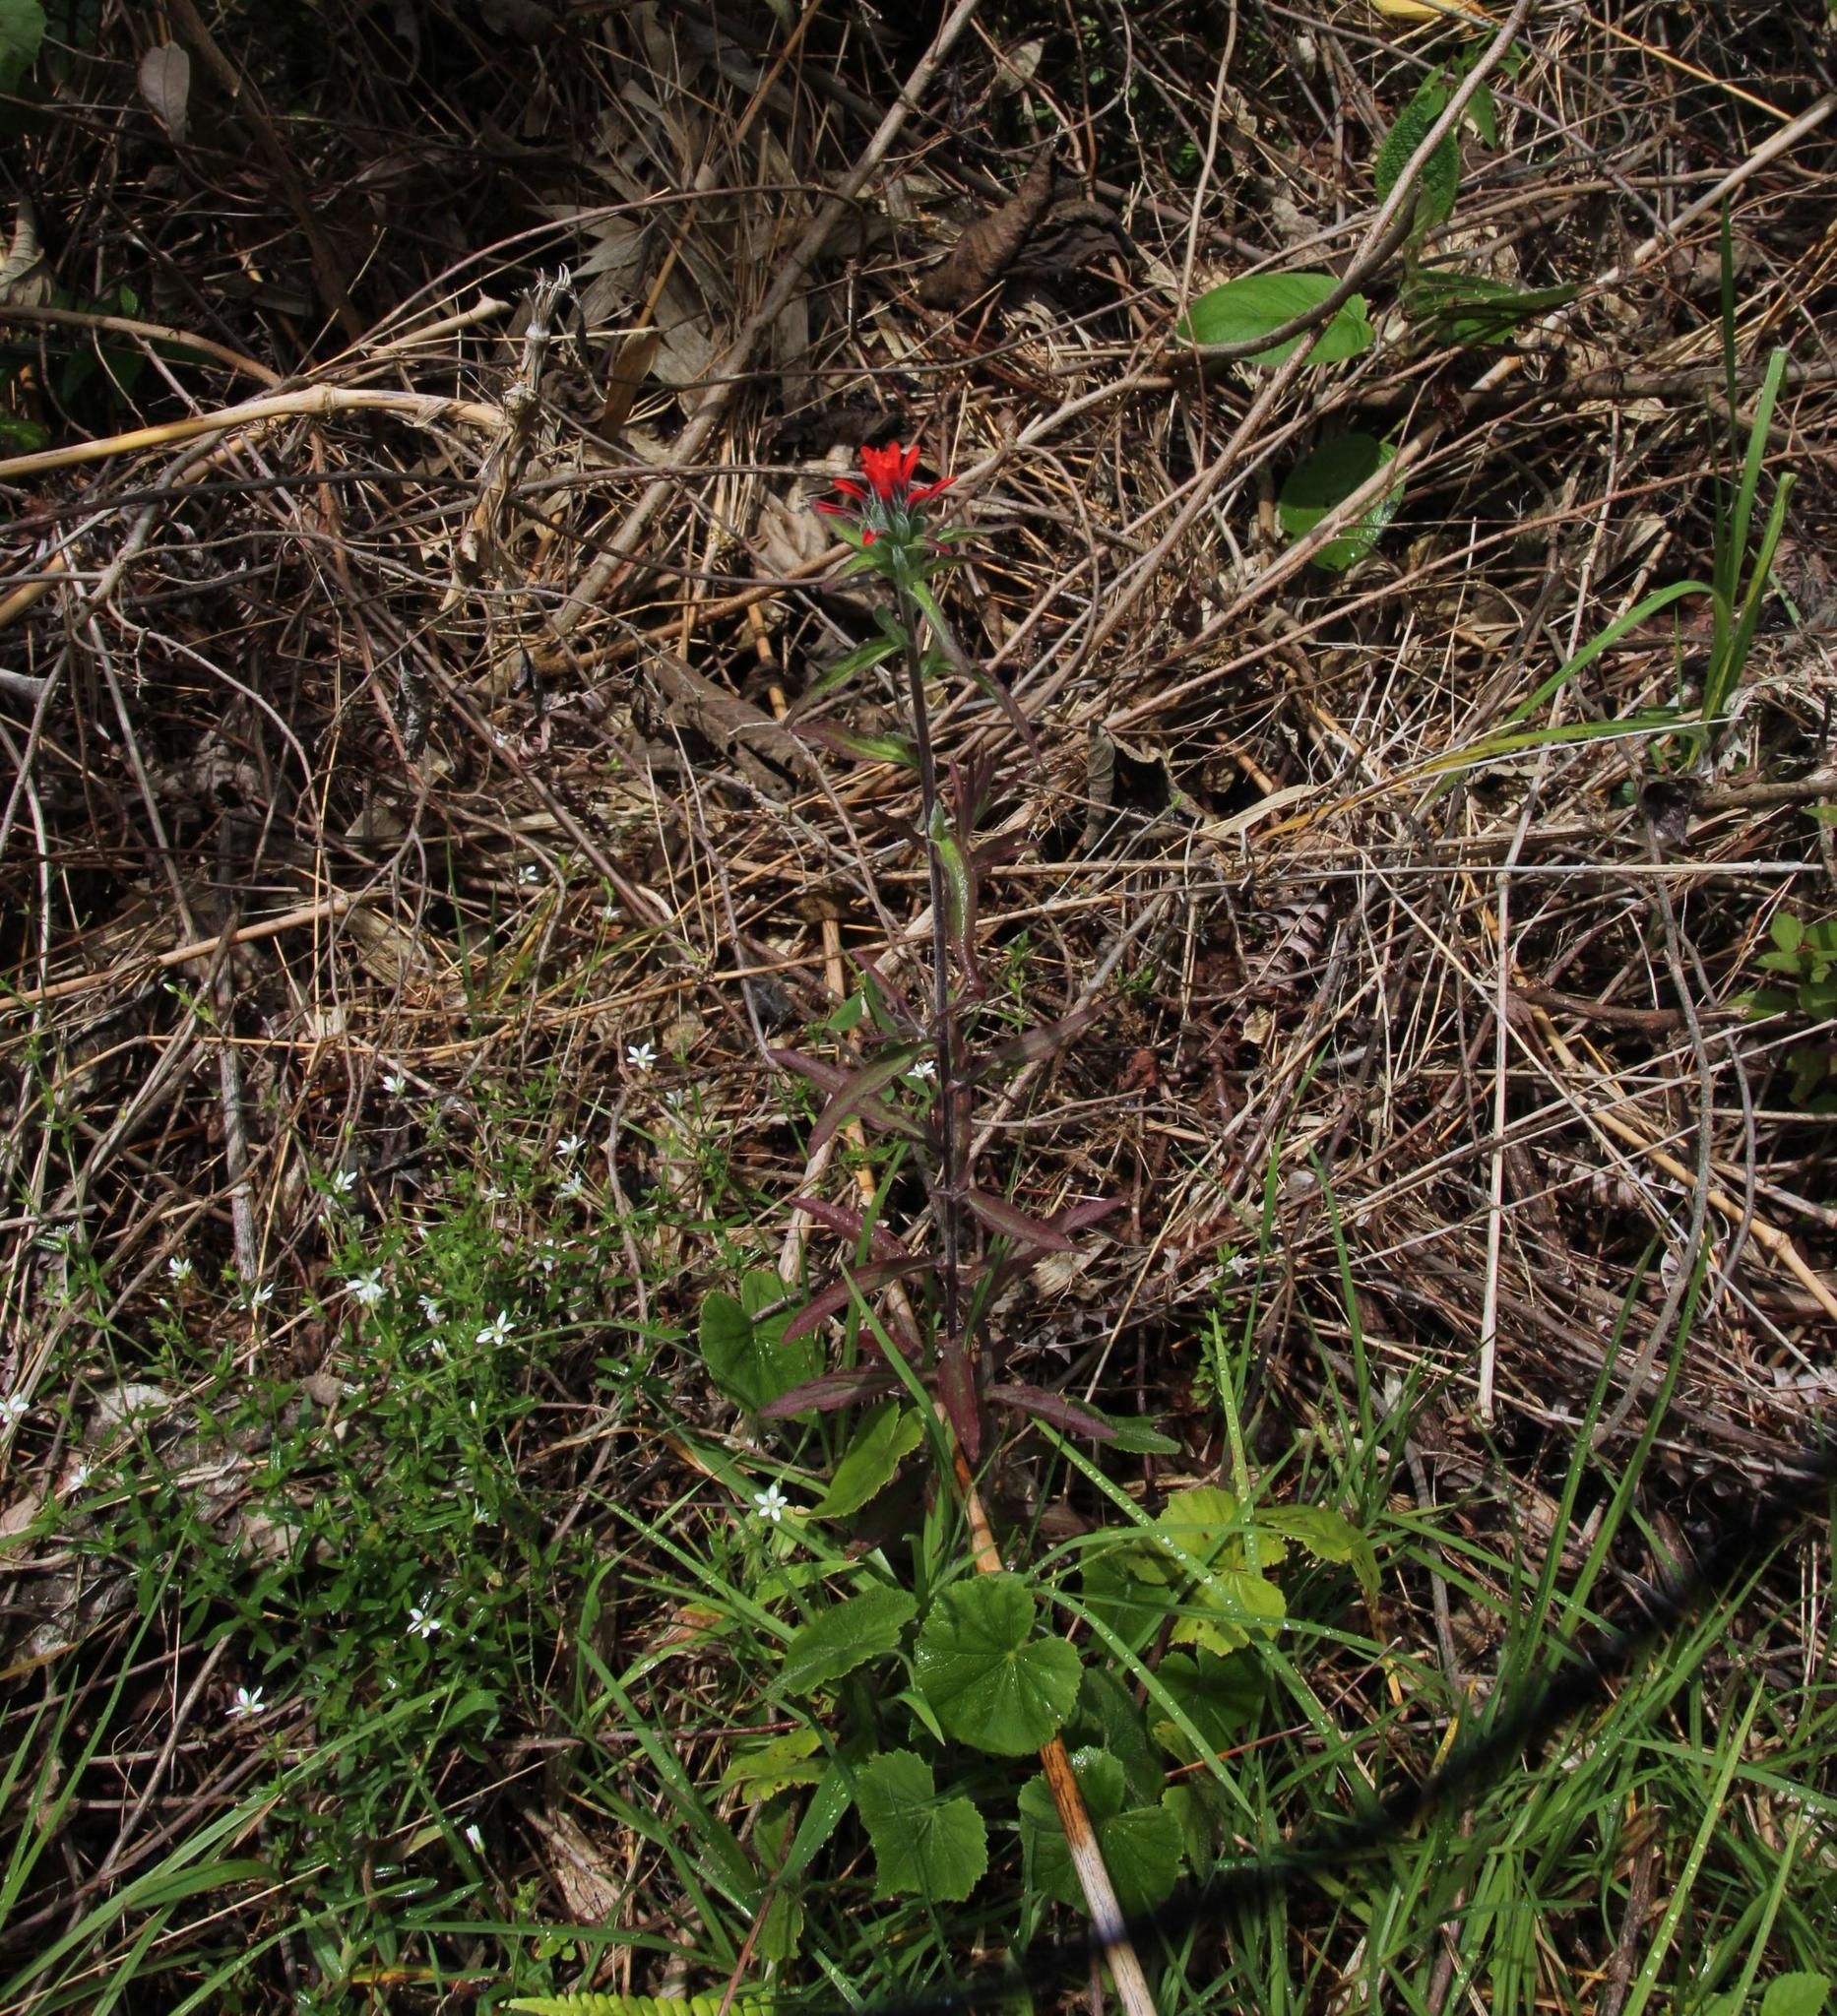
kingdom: Plantae
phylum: Tracheophyta
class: Magnoliopsida
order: Lamiales
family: Orobanchaceae
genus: Castilleja
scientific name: Castilleja arvensis
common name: Indian paintbrush
